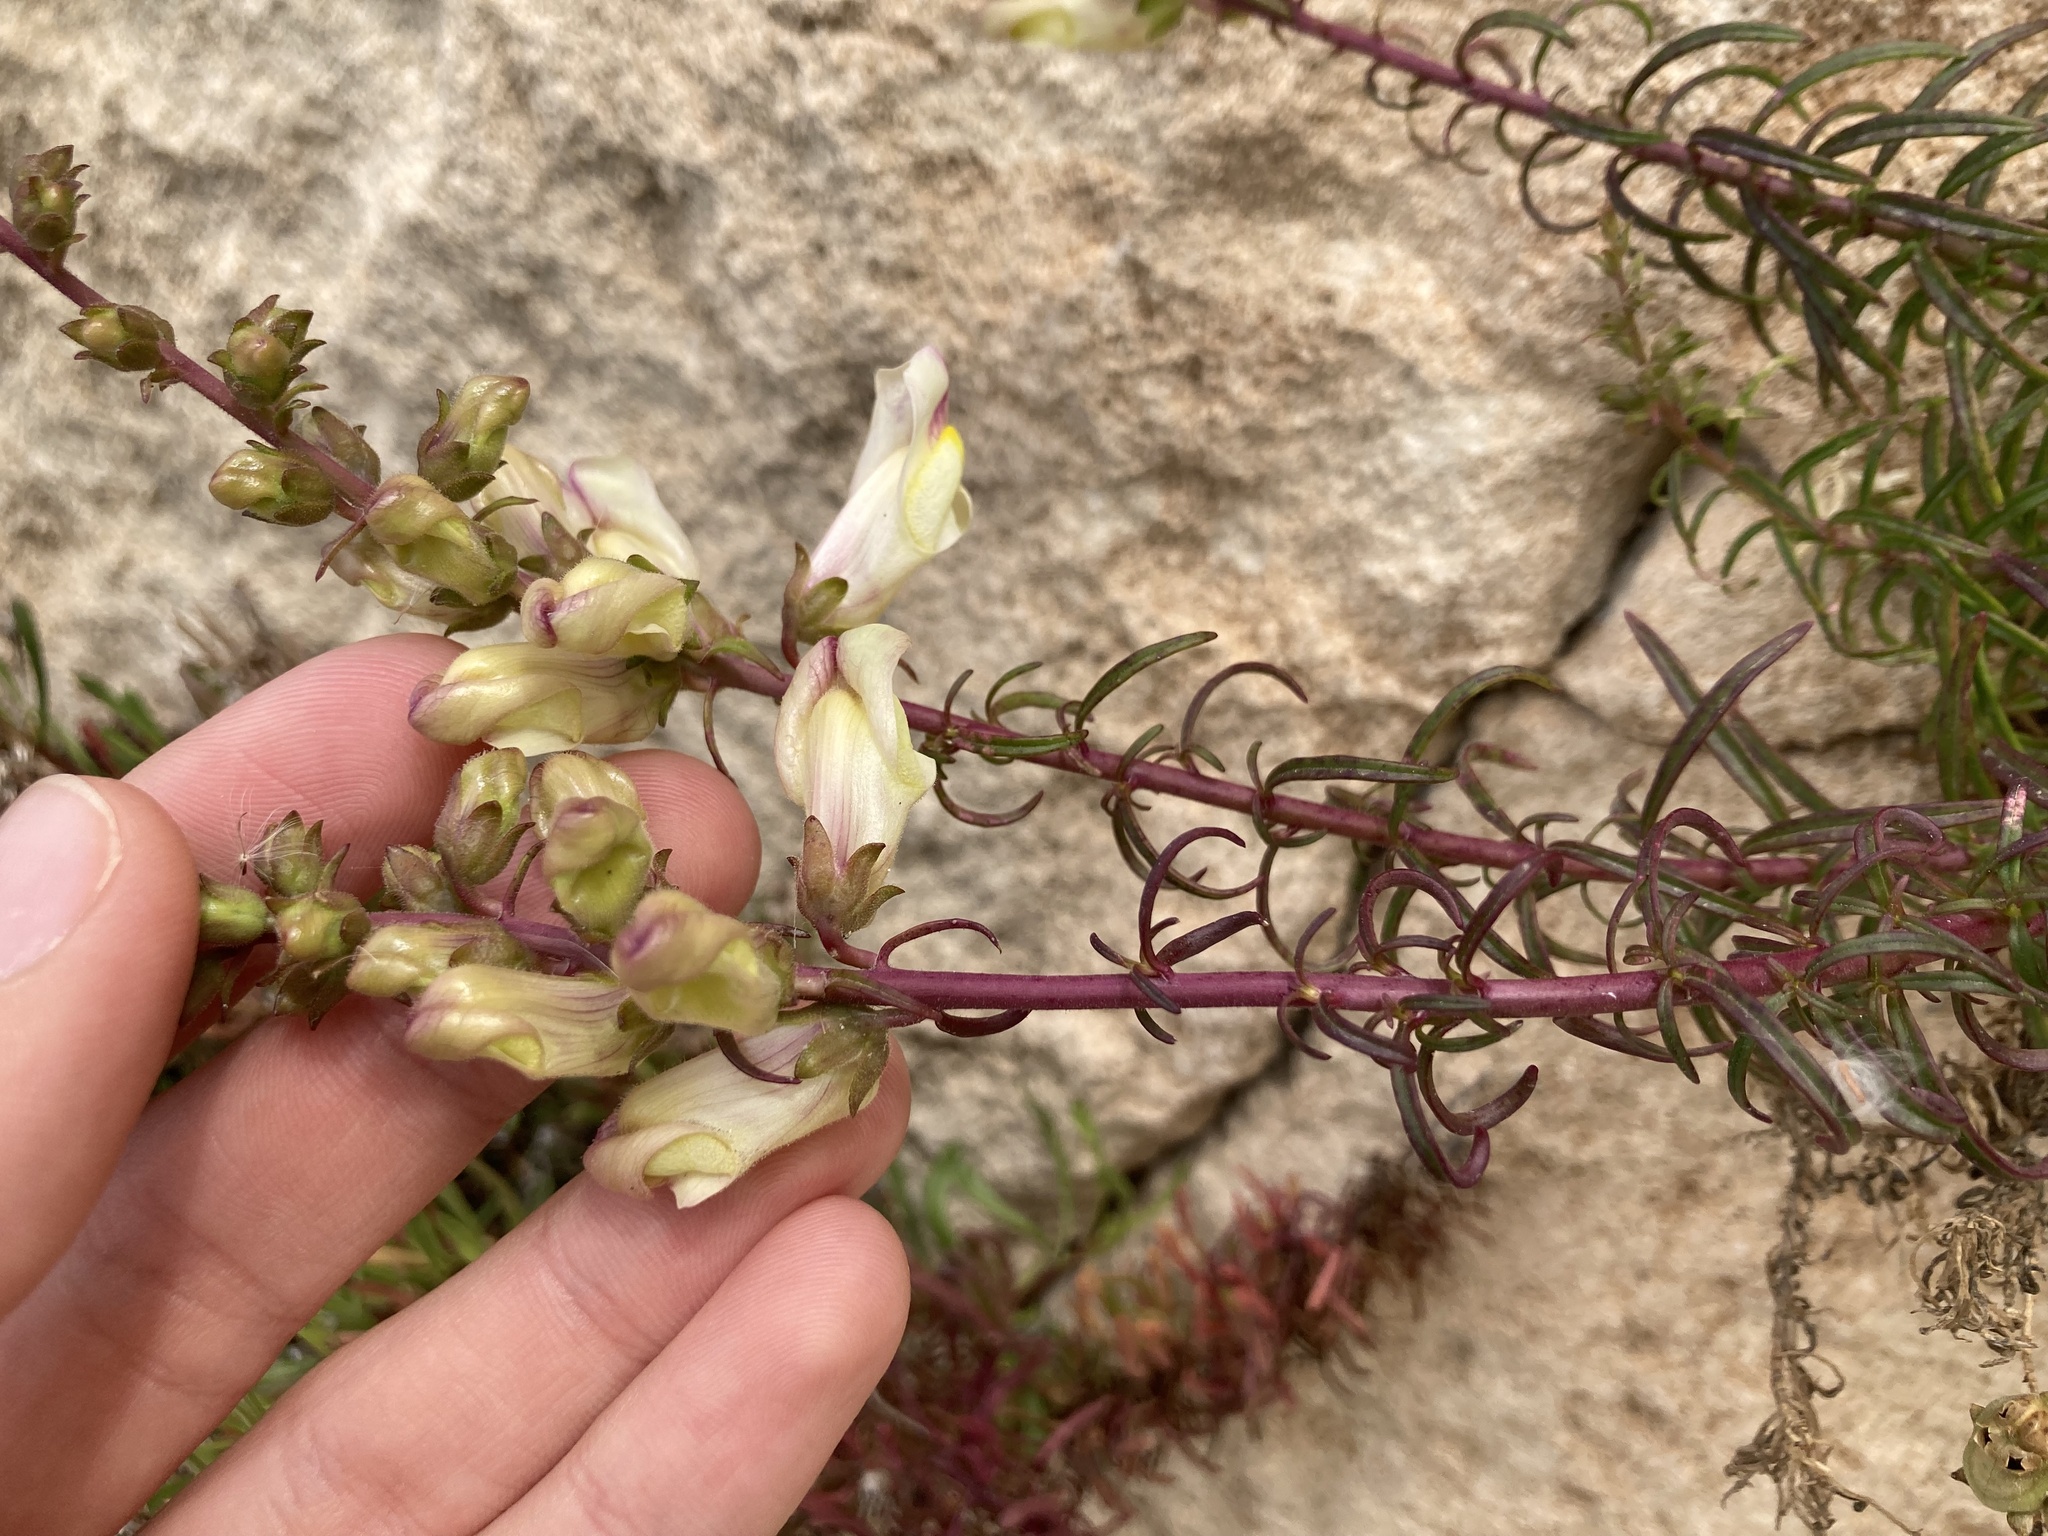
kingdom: Plantae
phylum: Tracheophyta
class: Magnoliopsida
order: Lamiales
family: Plantaginaceae
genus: Antirrhinum
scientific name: Antirrhinum siculum
